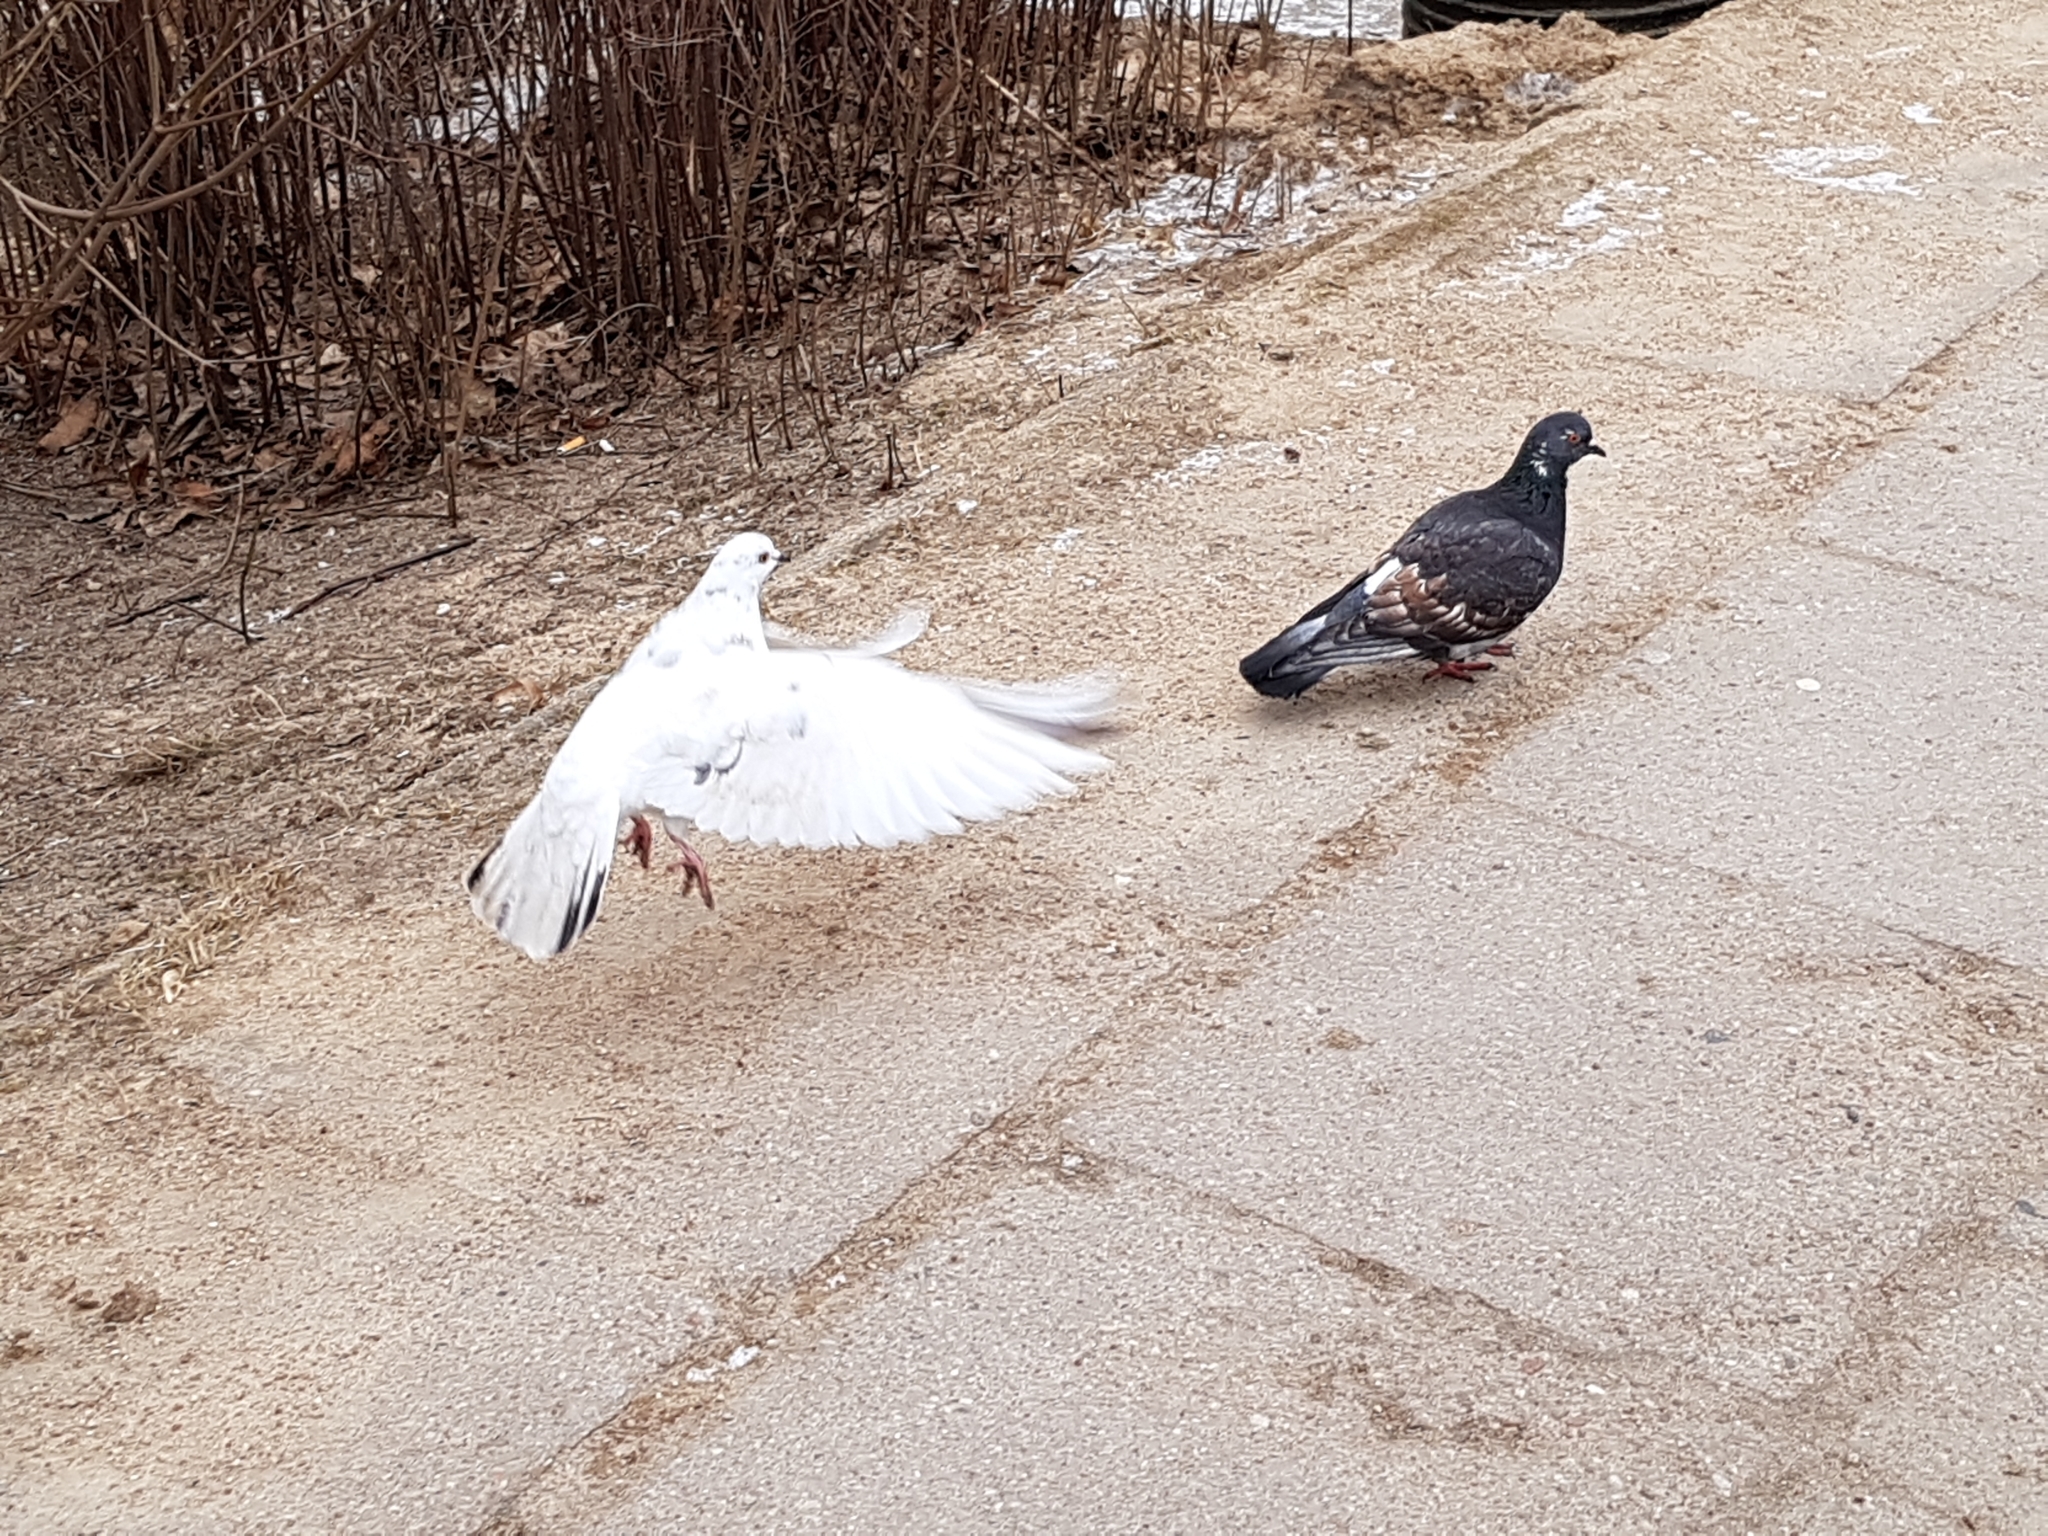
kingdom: Animalia
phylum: Chordata
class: Aves
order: Columbiformes
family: Columbidae
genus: Columba
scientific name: Columba livia
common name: Rock pigeon
